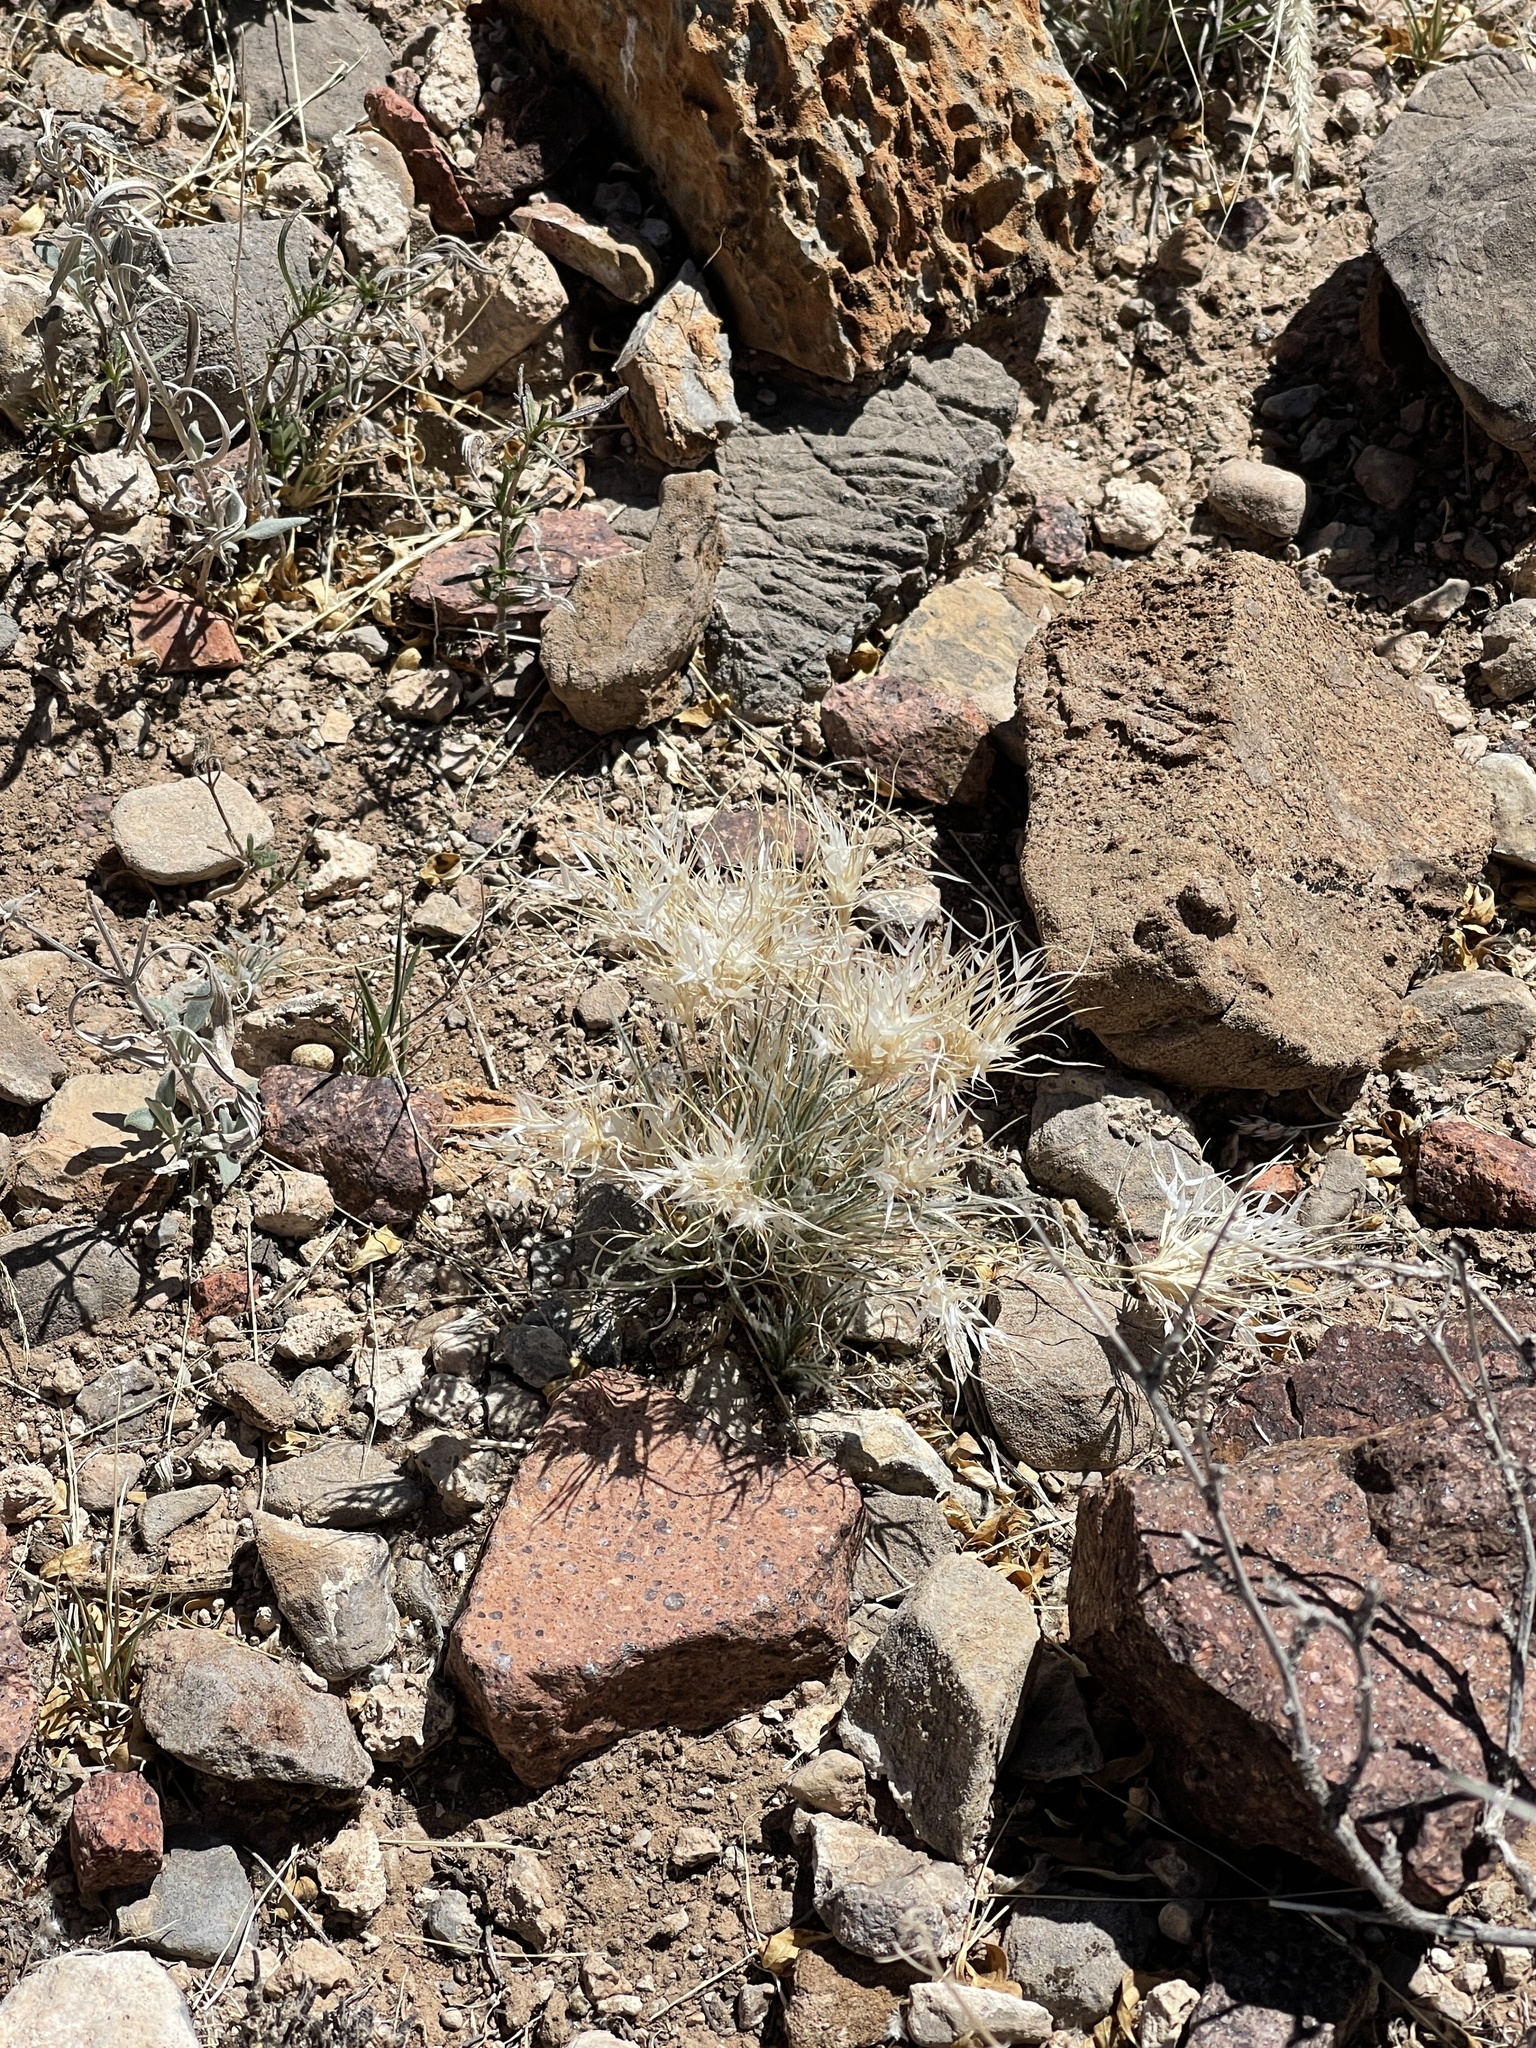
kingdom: Plantae
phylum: Tracheophyta
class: Liliopsida
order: Poales
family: Poaceae
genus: Dasyochloa
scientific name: Dasyochloa pulchella
